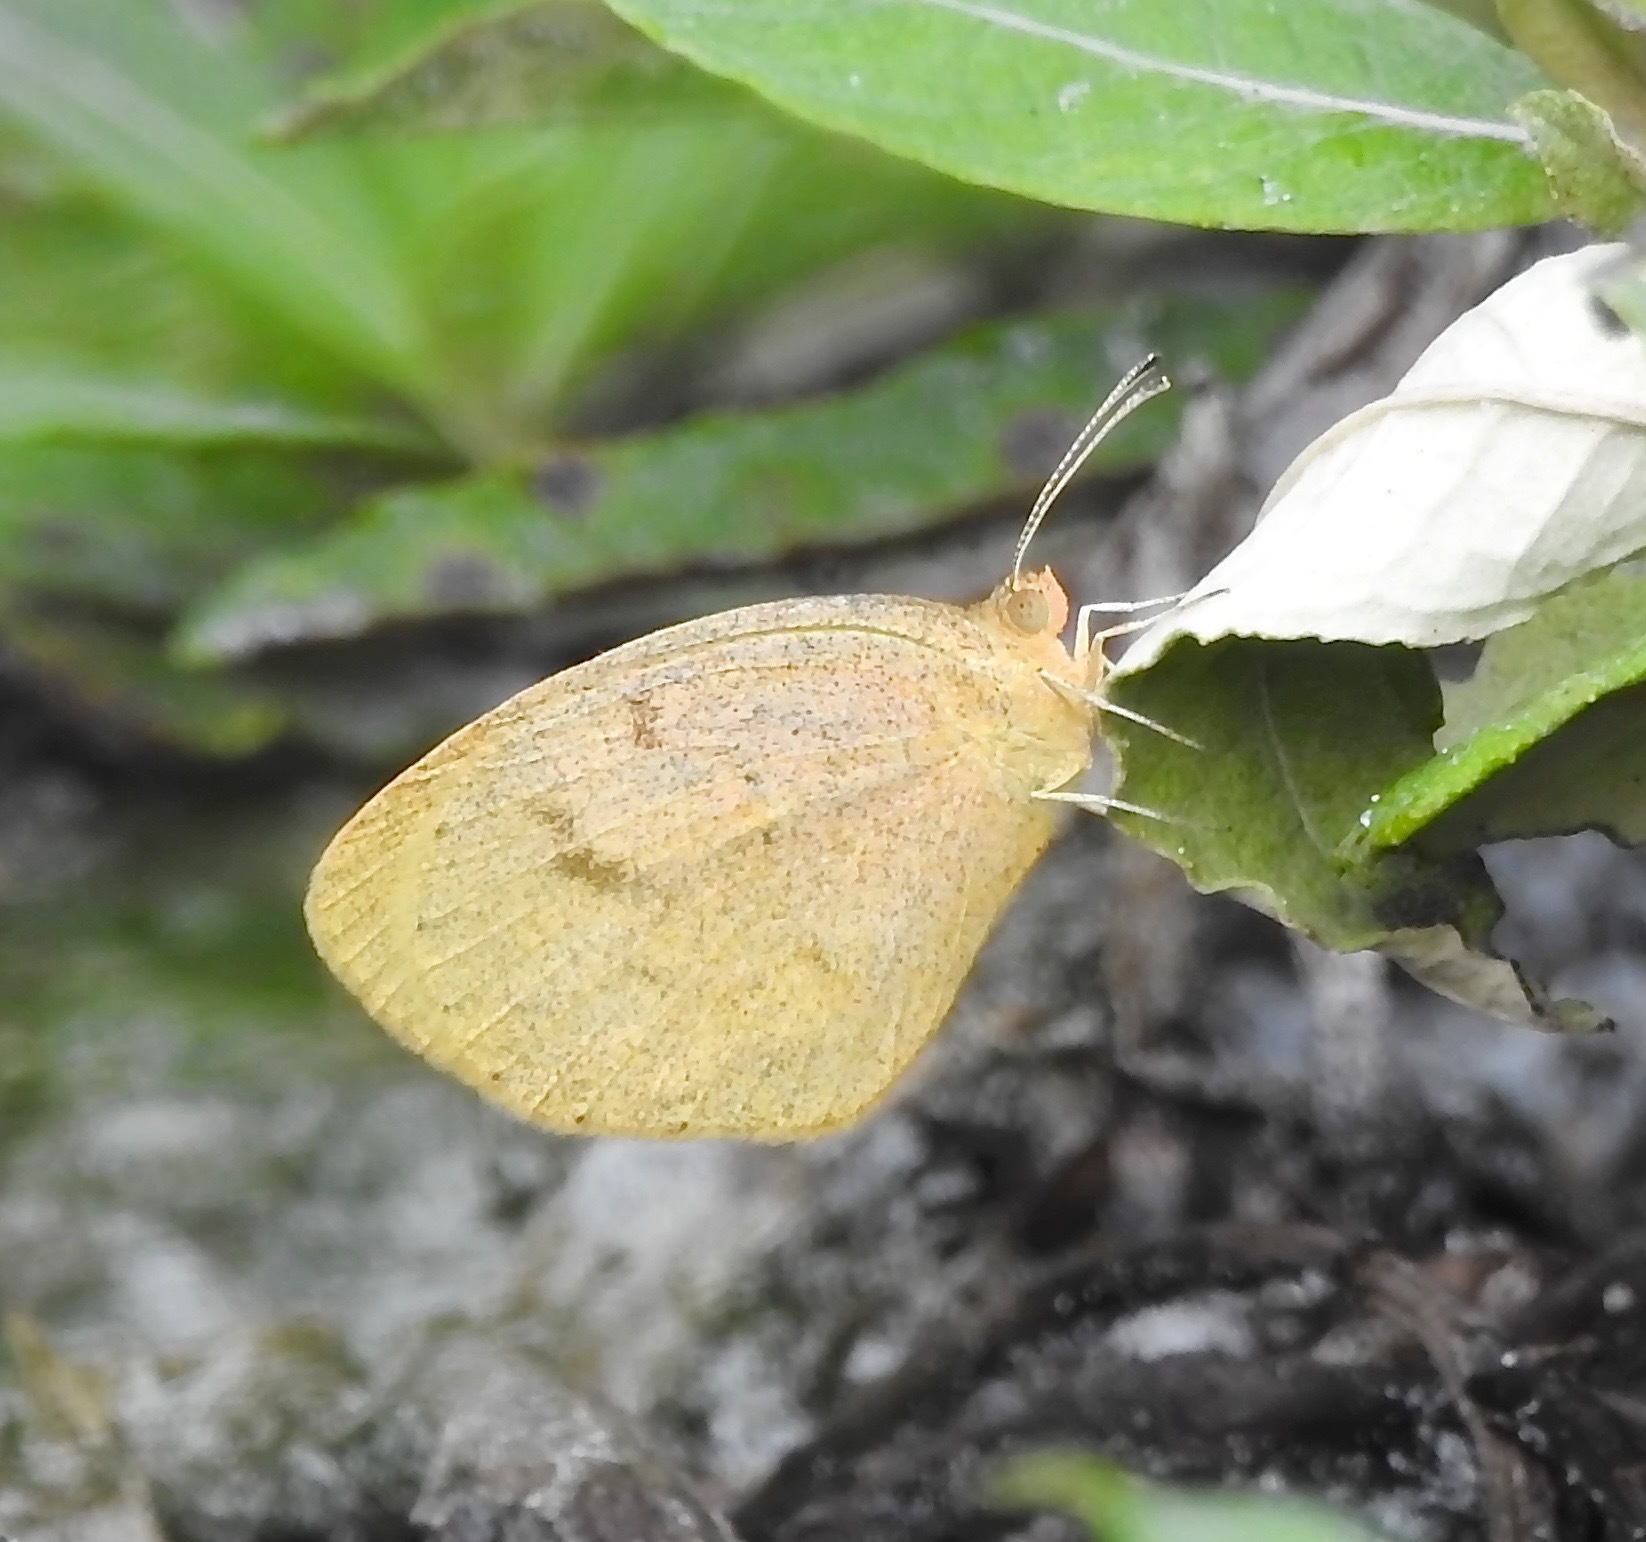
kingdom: Animalia
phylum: Arthropoda
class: Insecta
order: Lepidoptera
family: Pieridae
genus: Eurema
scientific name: Eurema daira
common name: Barred sulphur
